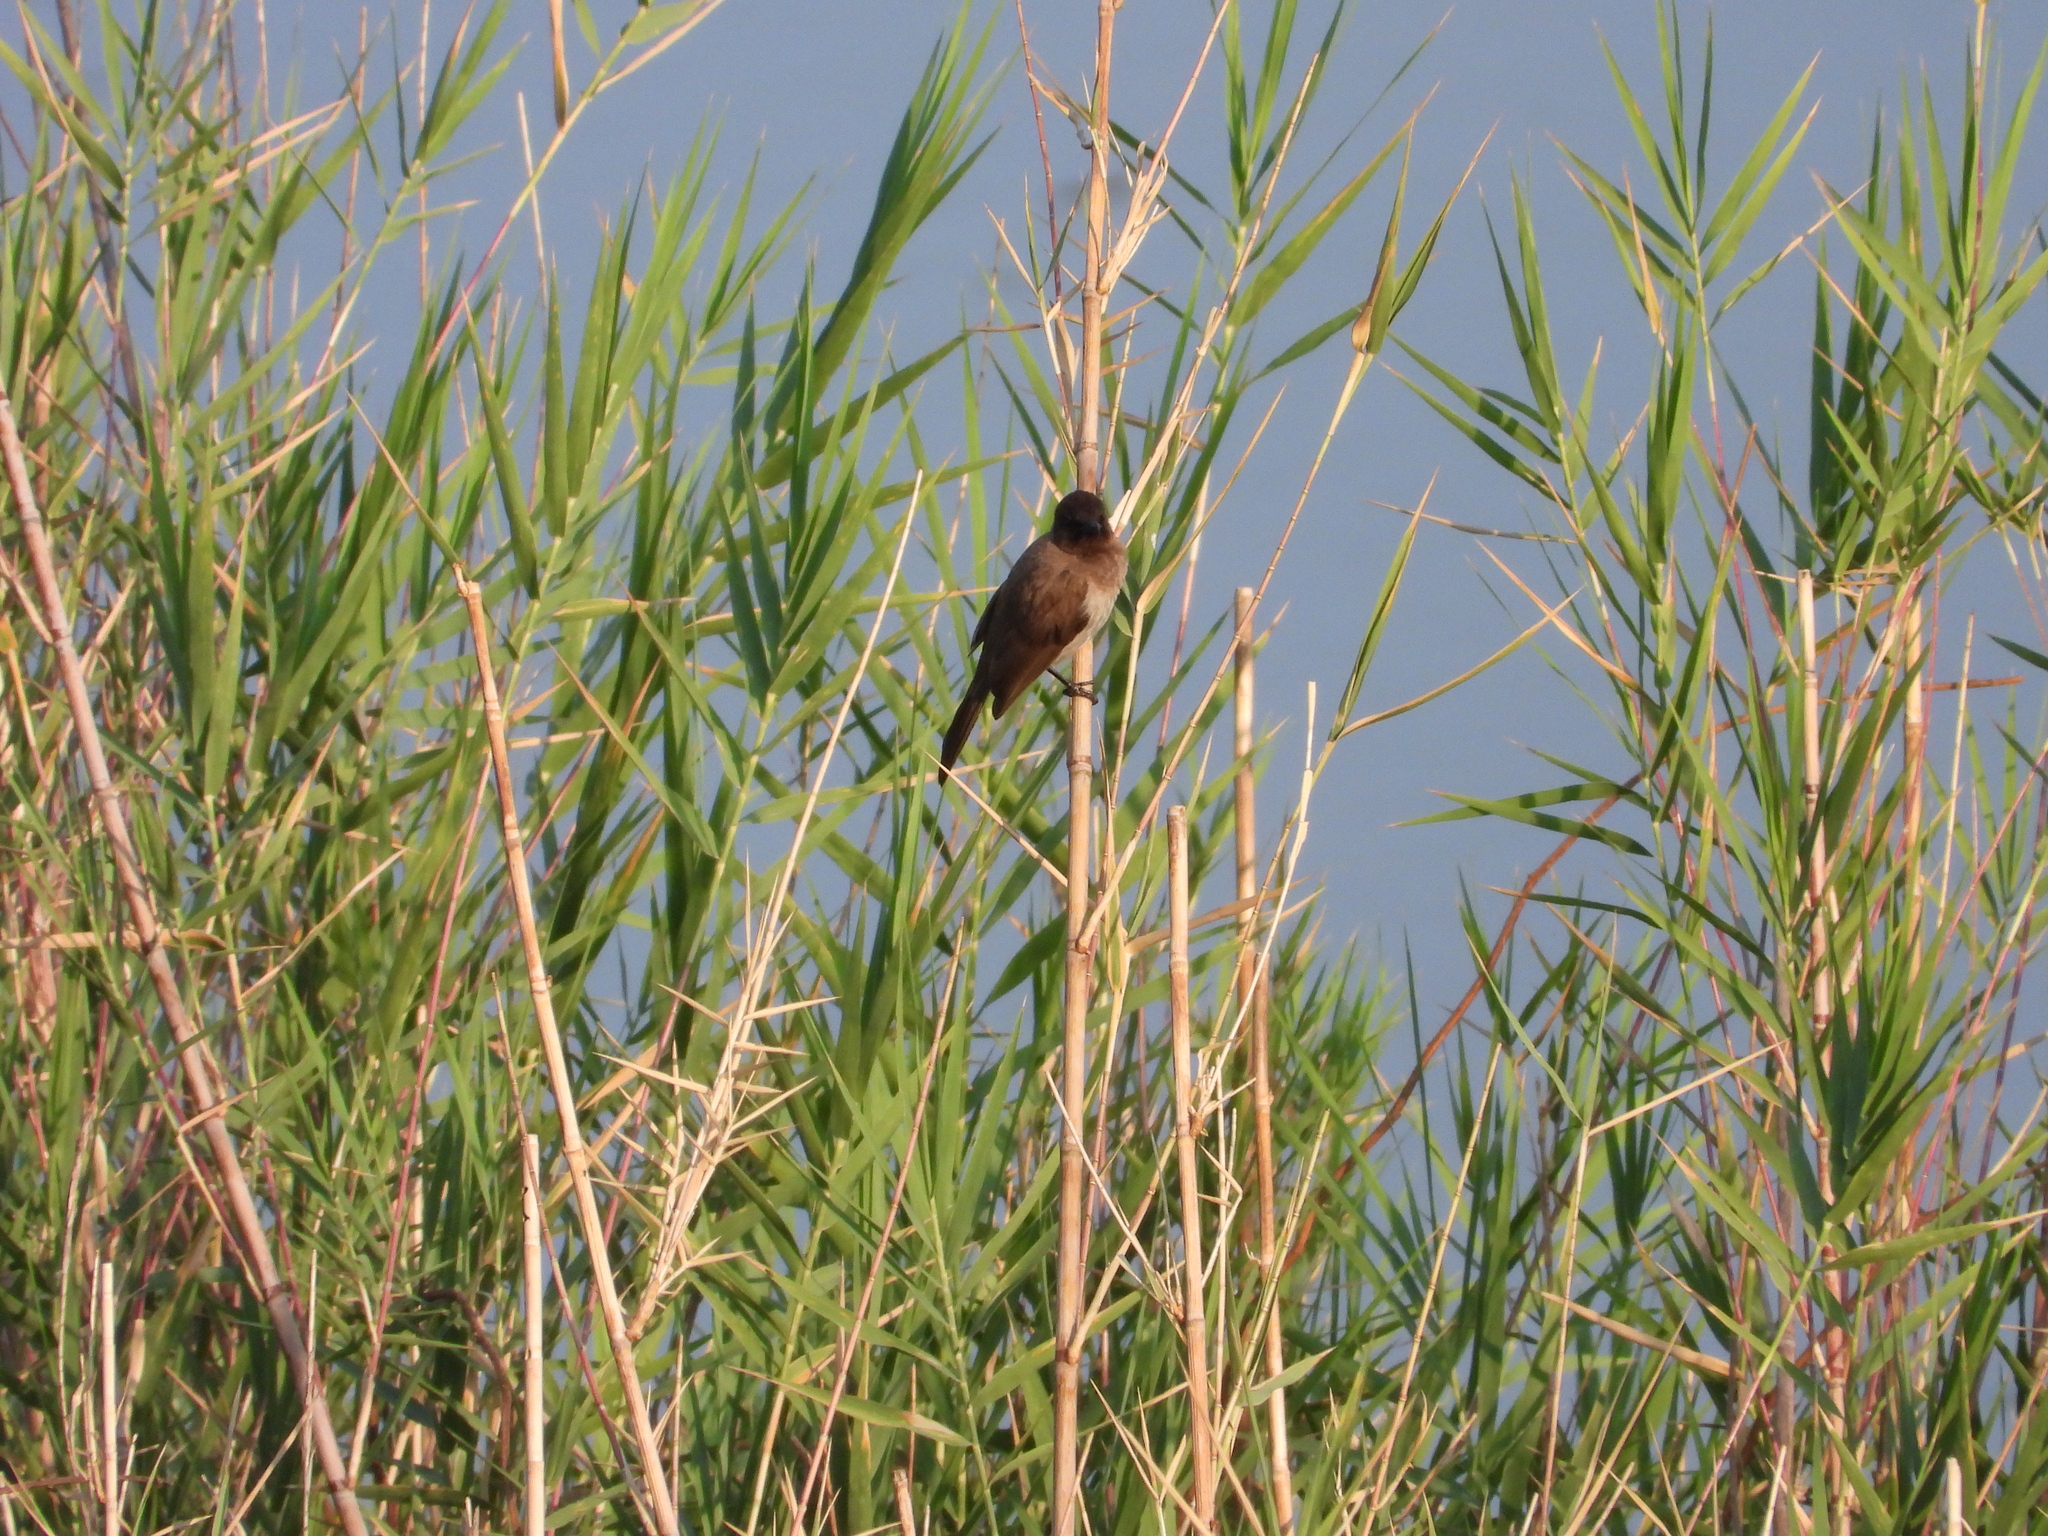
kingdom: Animalia
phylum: Chordata
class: Aves
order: Passeriformes
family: Pycnonotidae
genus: Pycnonotus
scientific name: Pycnonotus barbatus
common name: Common bulbul
